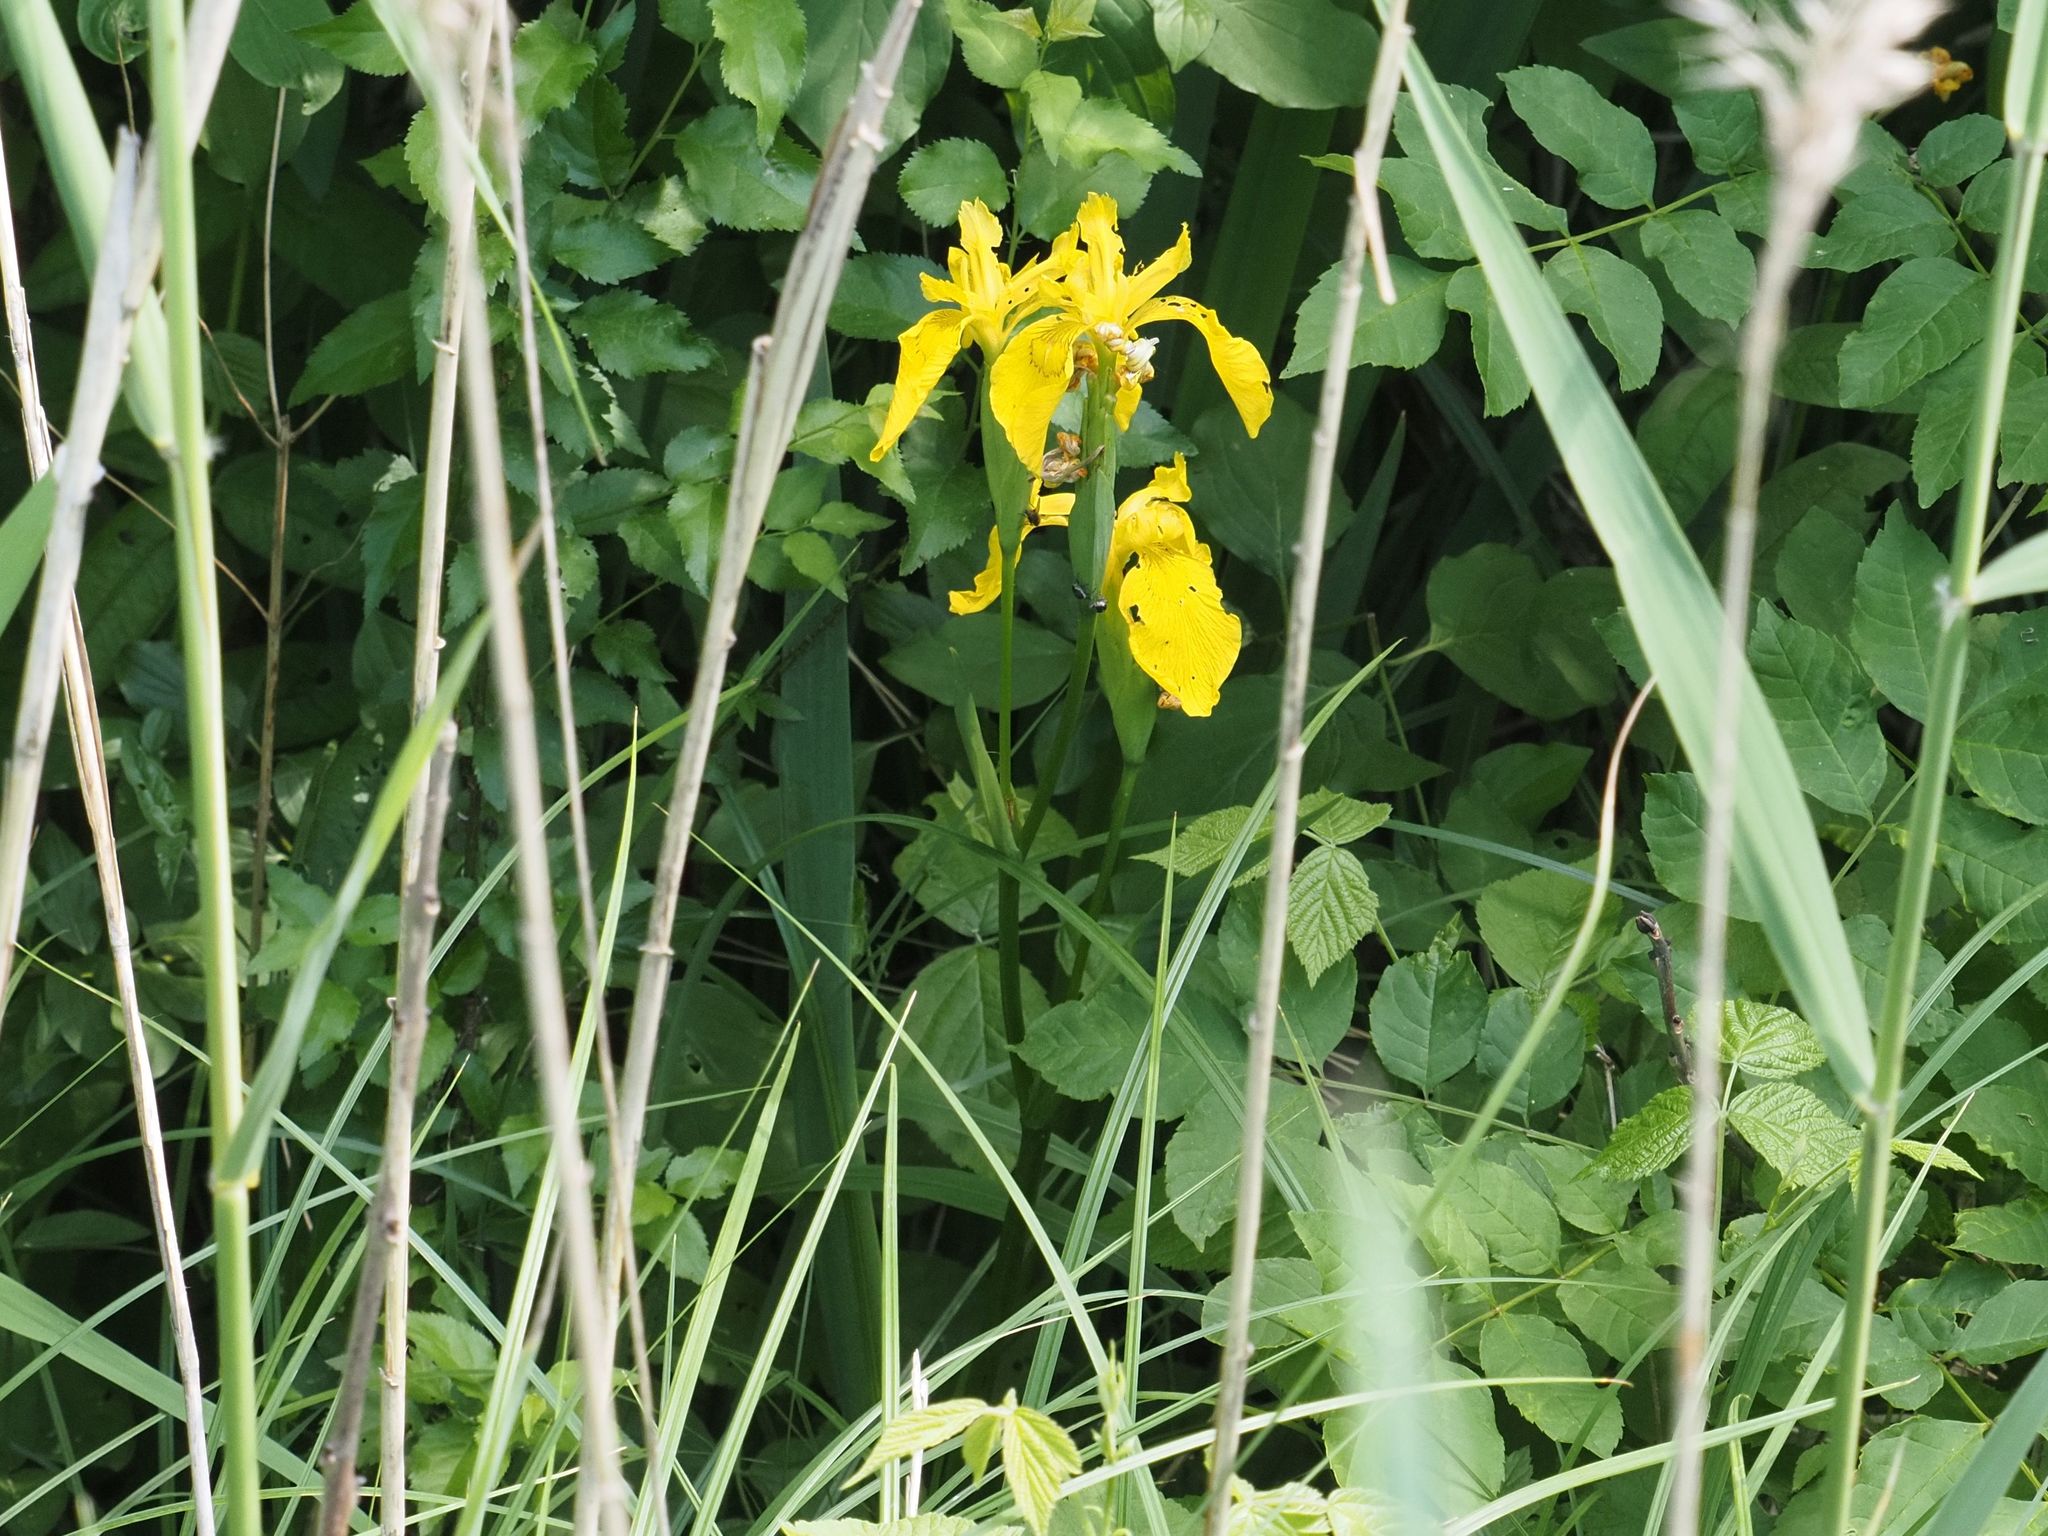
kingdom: Plantae
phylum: Tracheophyta
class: Liliopsida
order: Asparagales
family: Iridaceae
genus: Iris
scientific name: Iris pseudacorus
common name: Yellow flag
